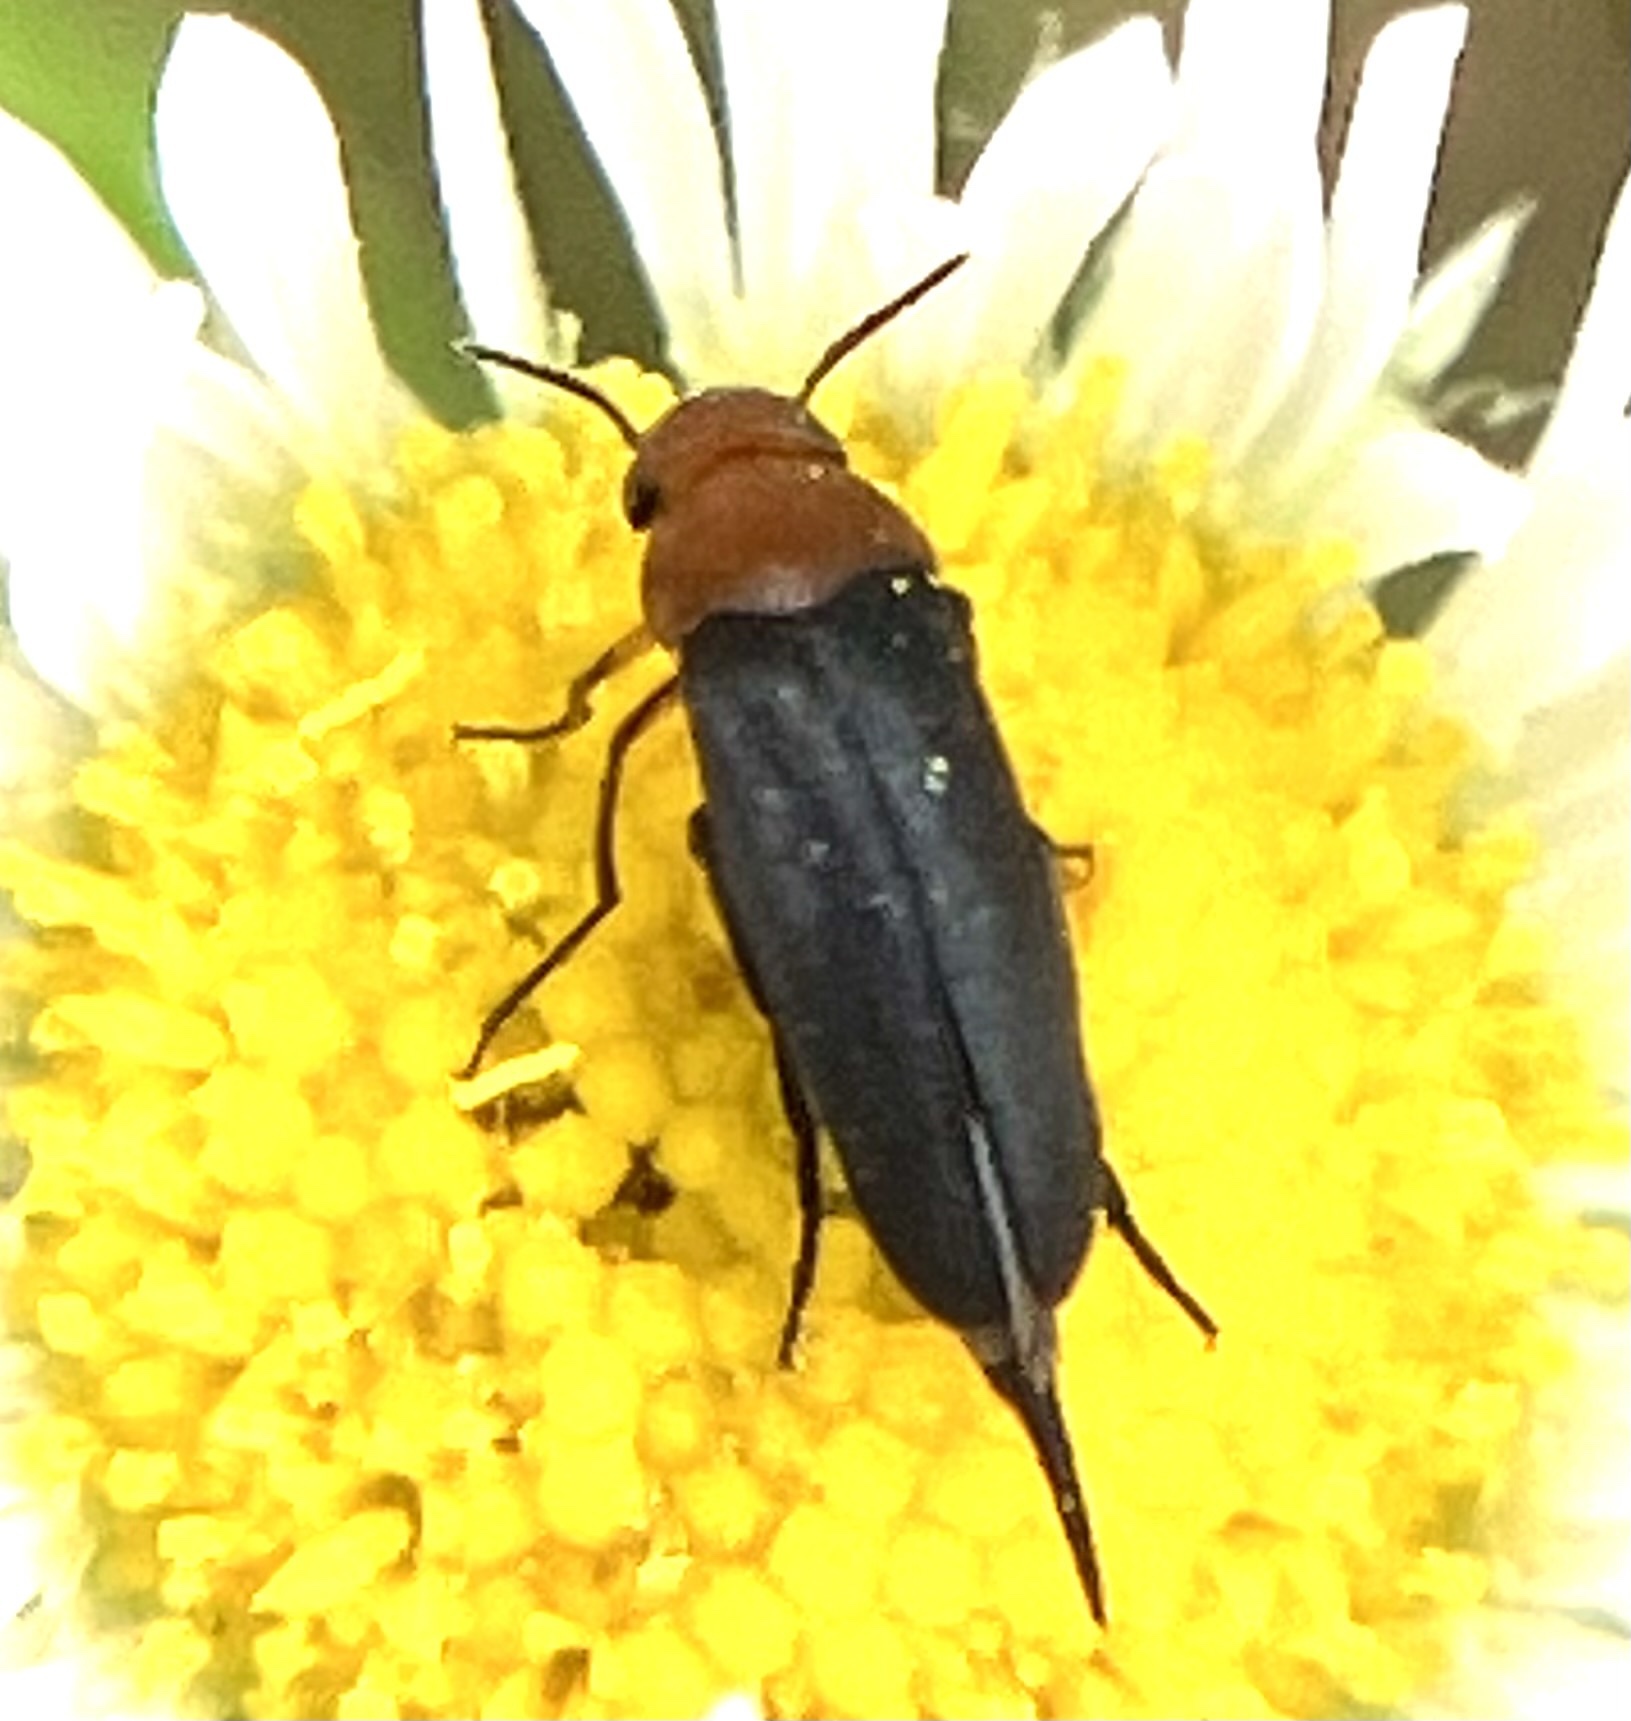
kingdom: Animalia
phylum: Arthropoda
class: Insecta
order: Coleoptera
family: Mordellidae
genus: Mordellistena
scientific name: Mordellistena cervicalis
